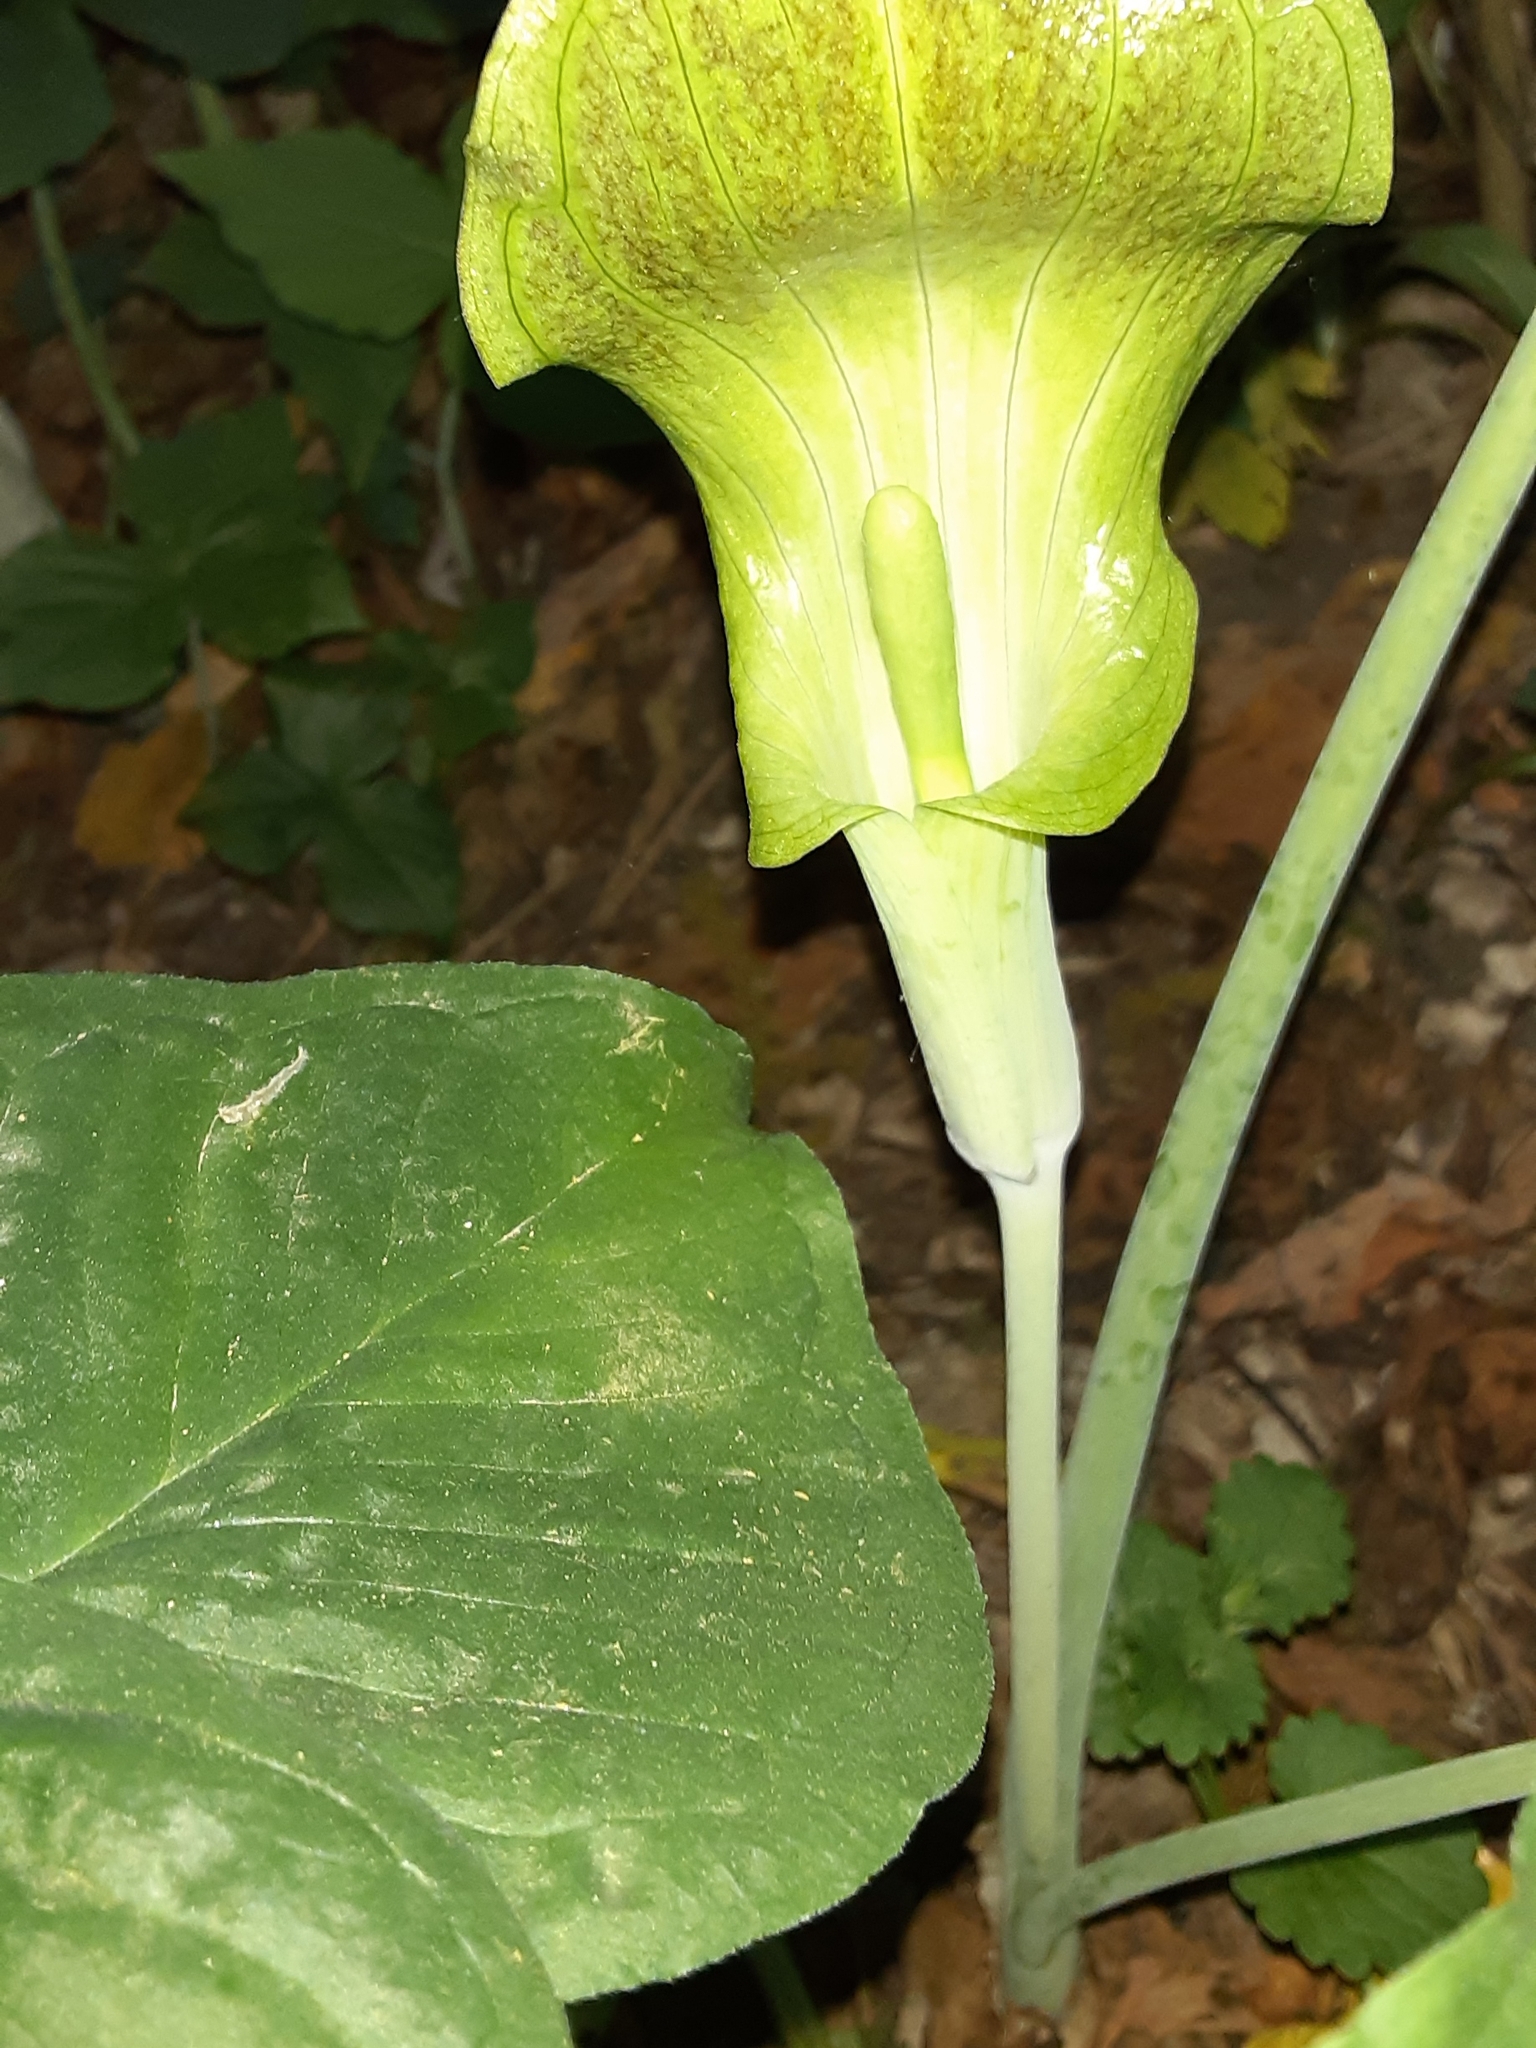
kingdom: Plantae
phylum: Tracheophyta
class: Liliopsida
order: Alismatales
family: Araceae
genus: Arisaema
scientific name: Arisaema triphyllum
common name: Jack-in-the-pulpit
